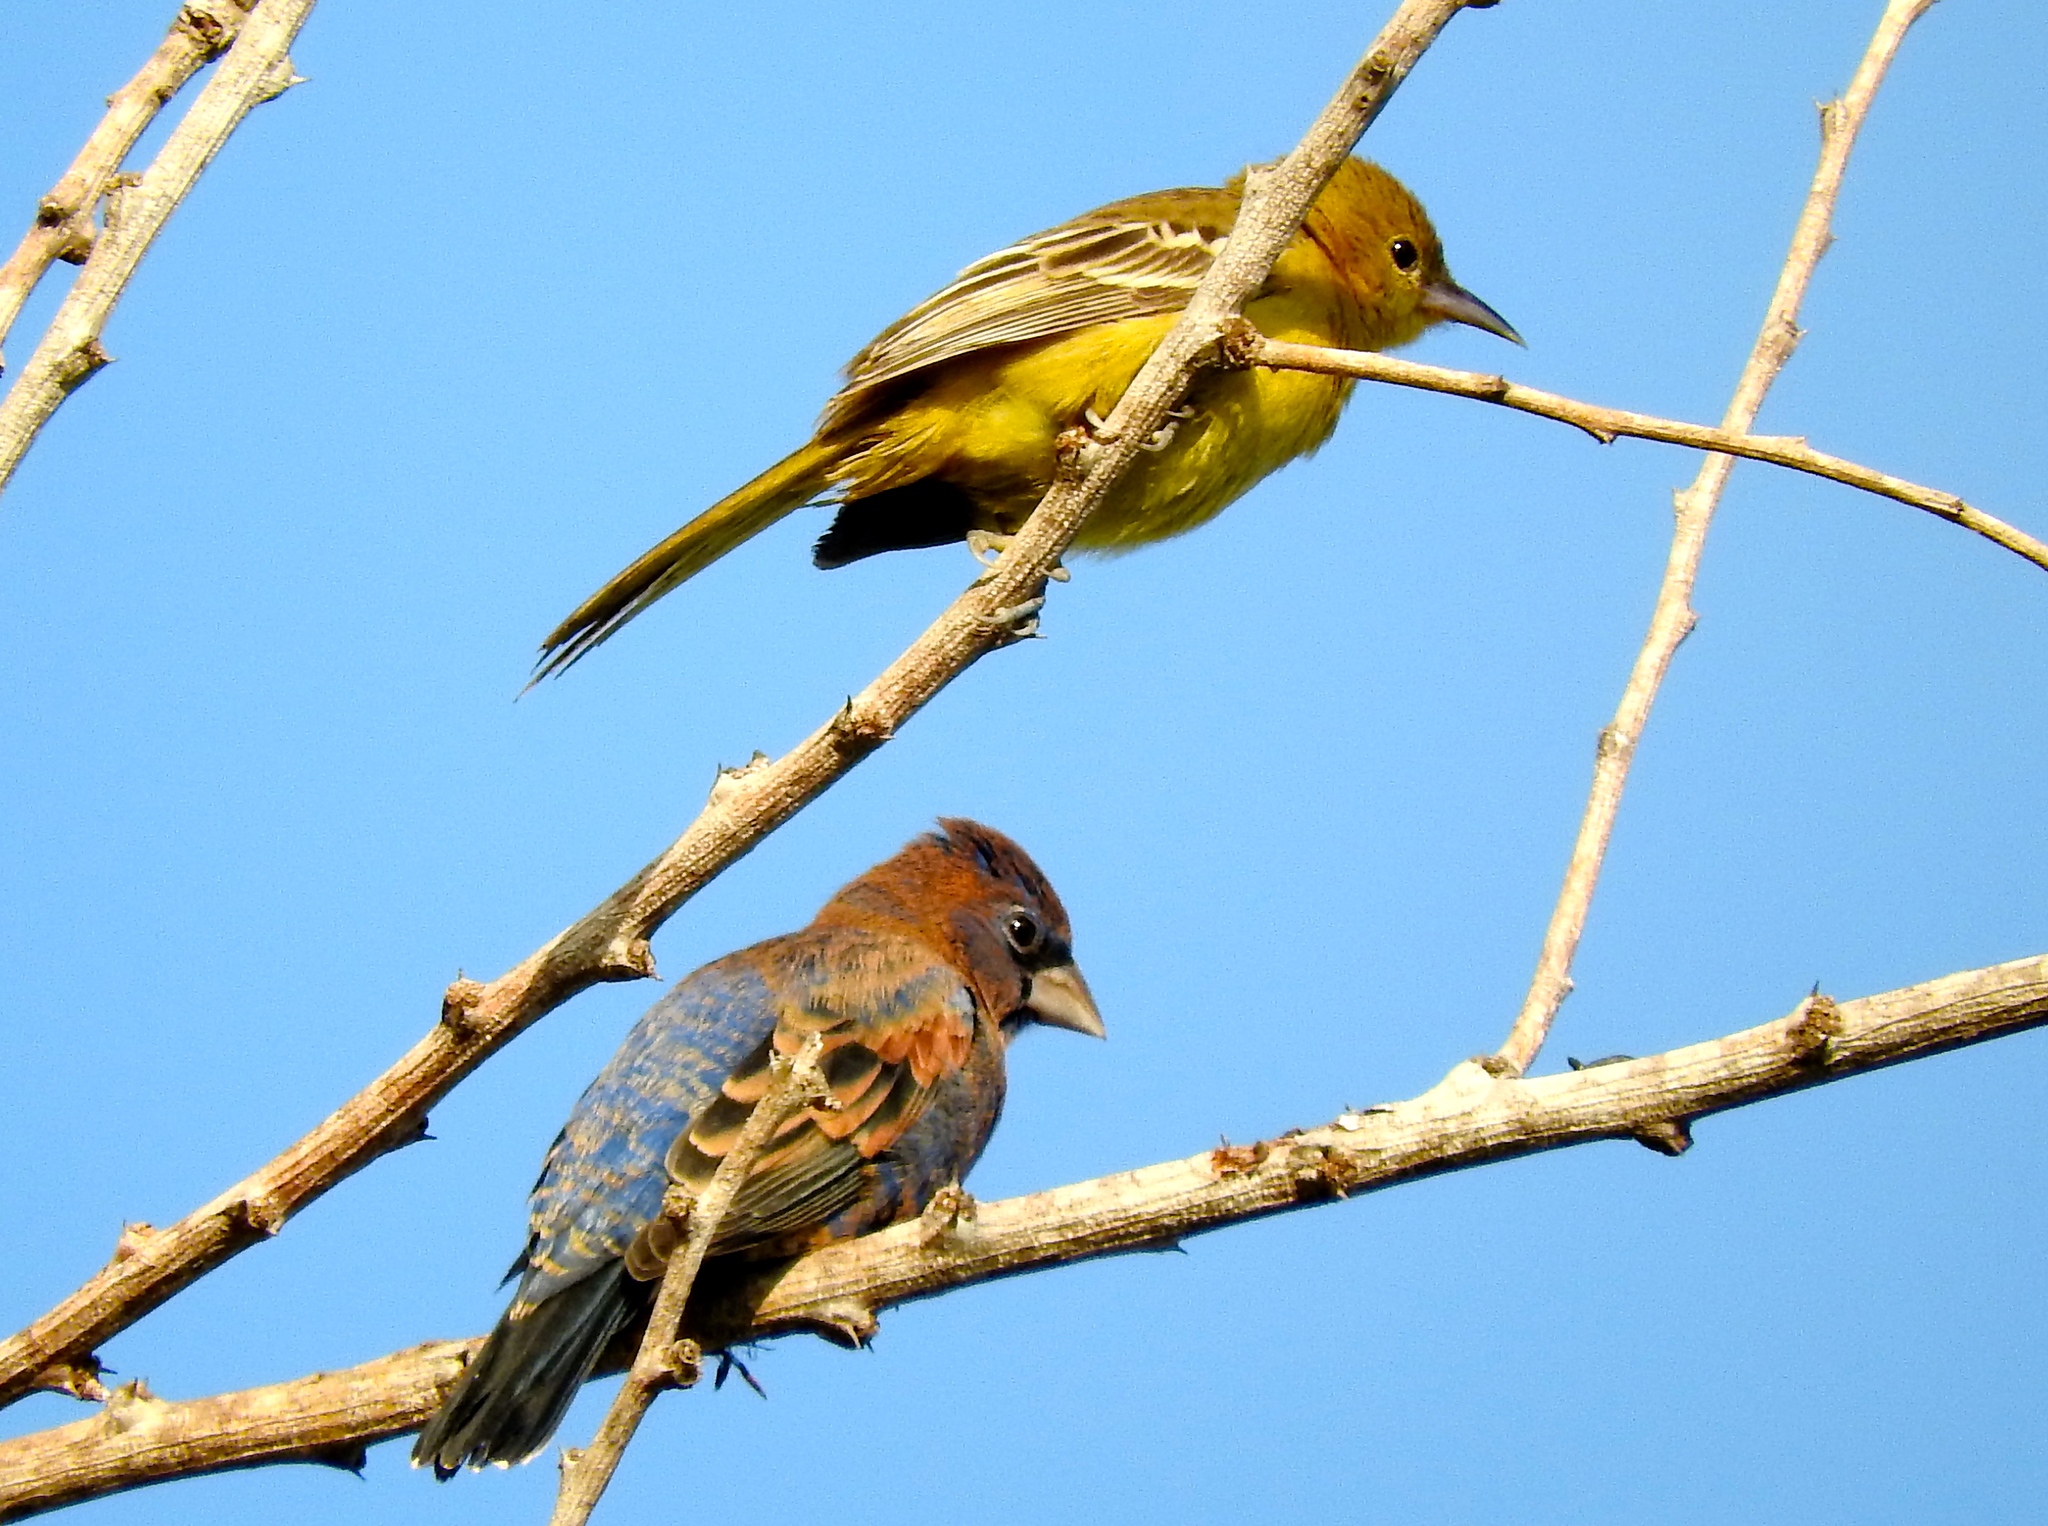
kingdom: Animalia
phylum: Chordata
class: Aves
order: Passeriformes
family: Icteridae
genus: Icterus
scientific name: Icterus spurius
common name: Orchard oriole
